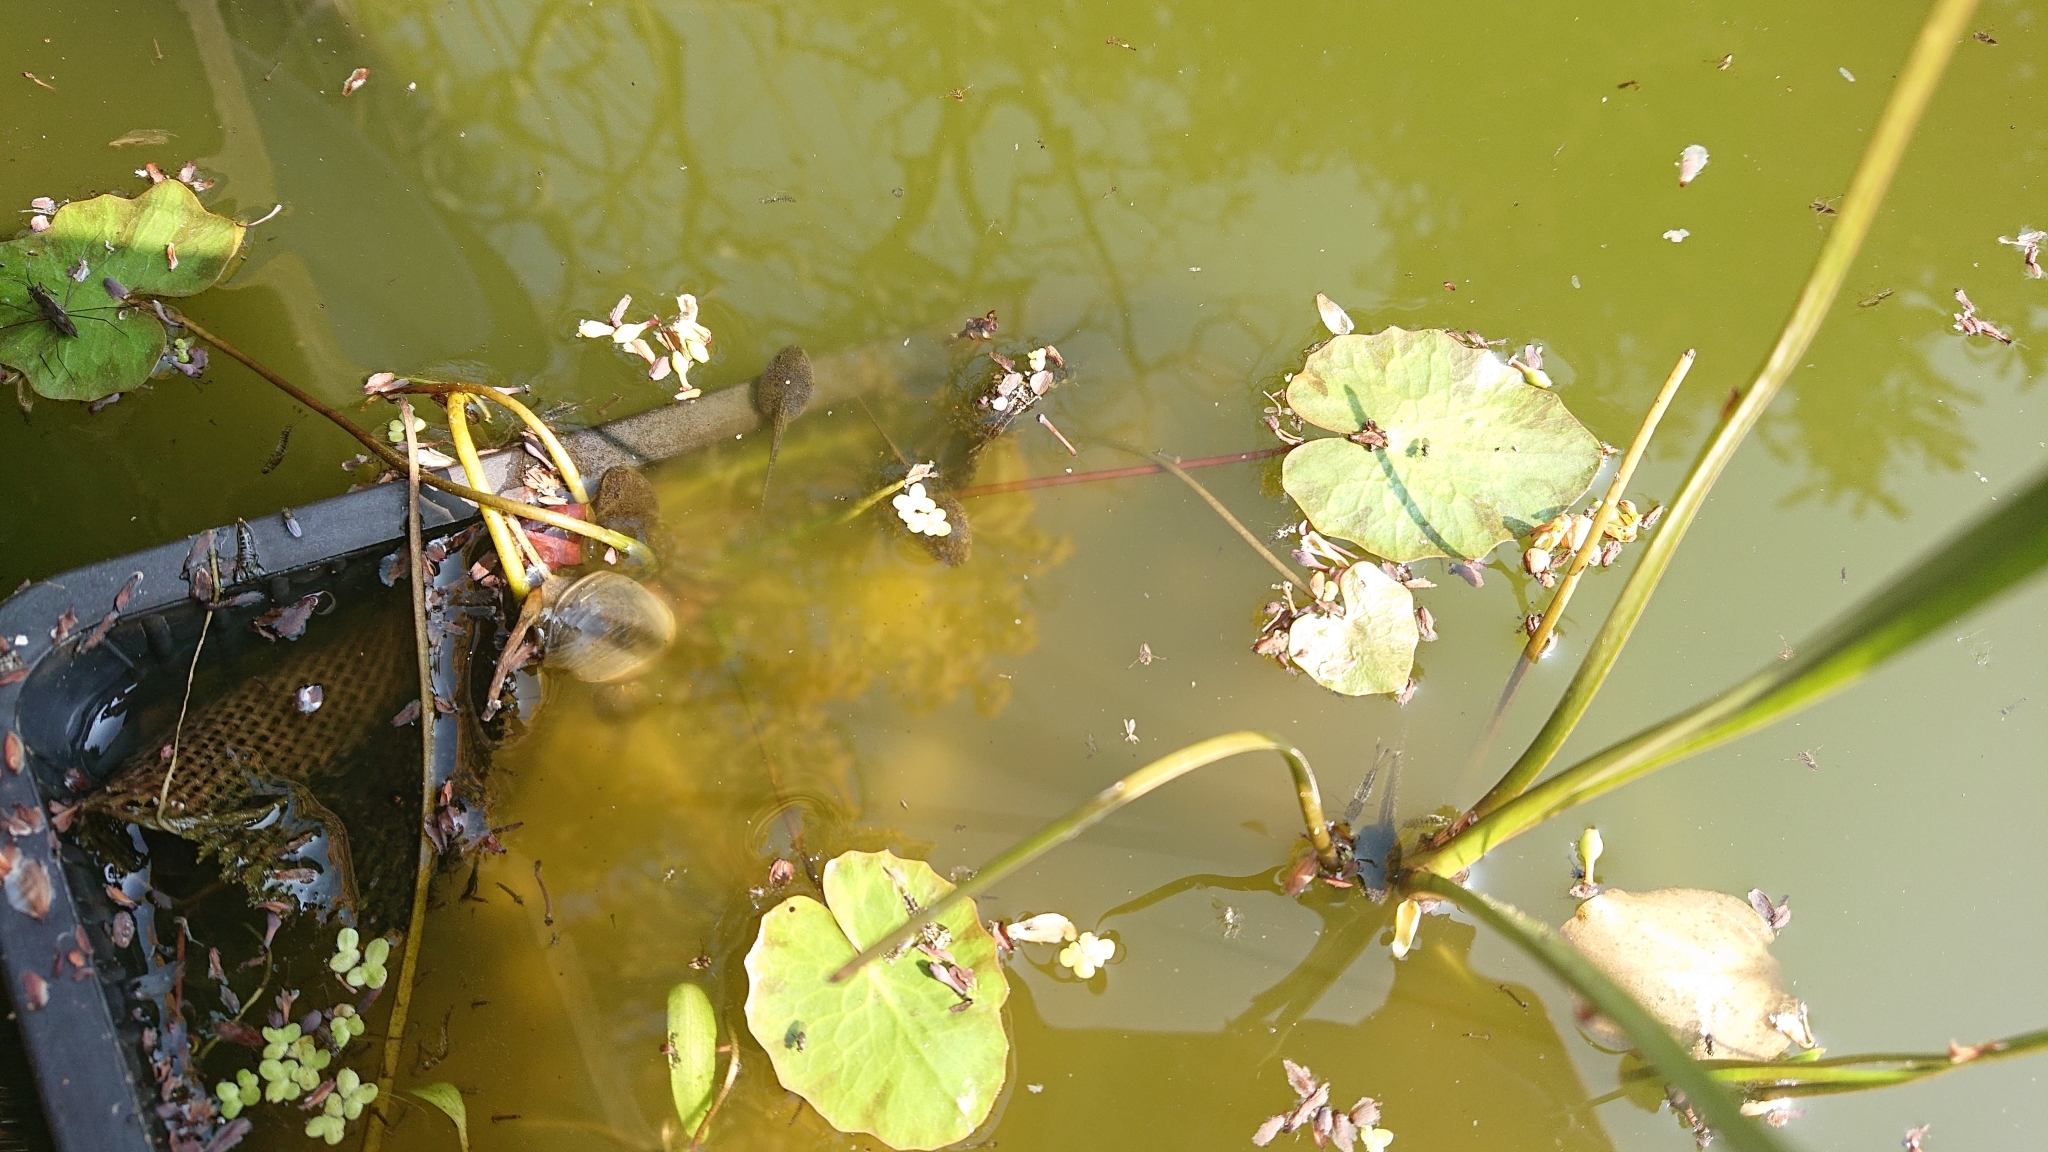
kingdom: Animalia
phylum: Chordata
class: Amphibia
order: Anura
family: Ranidae
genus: Rana
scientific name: Rana temporaria
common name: Common frog
